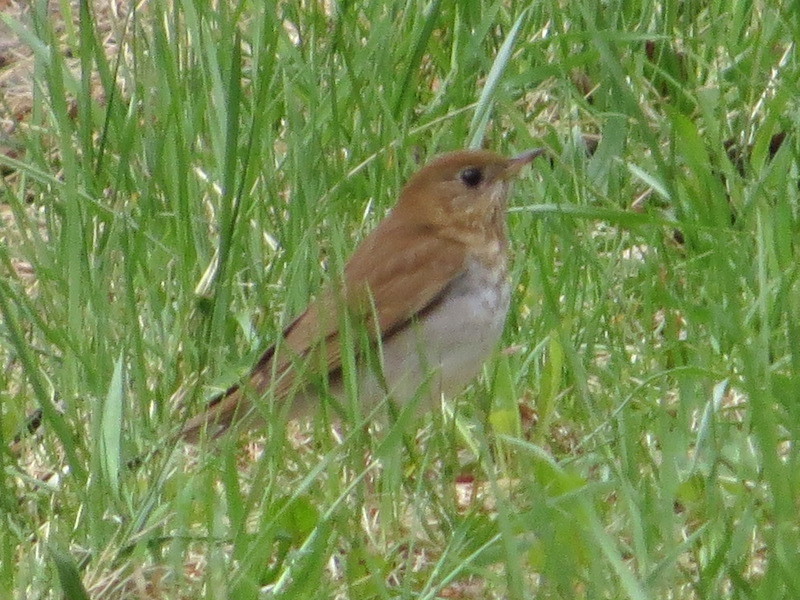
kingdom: Animalia
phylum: Chordata
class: Aves
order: Passeriformes
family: Turdidae
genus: Catharus
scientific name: Catharus fuscescens
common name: Veery
